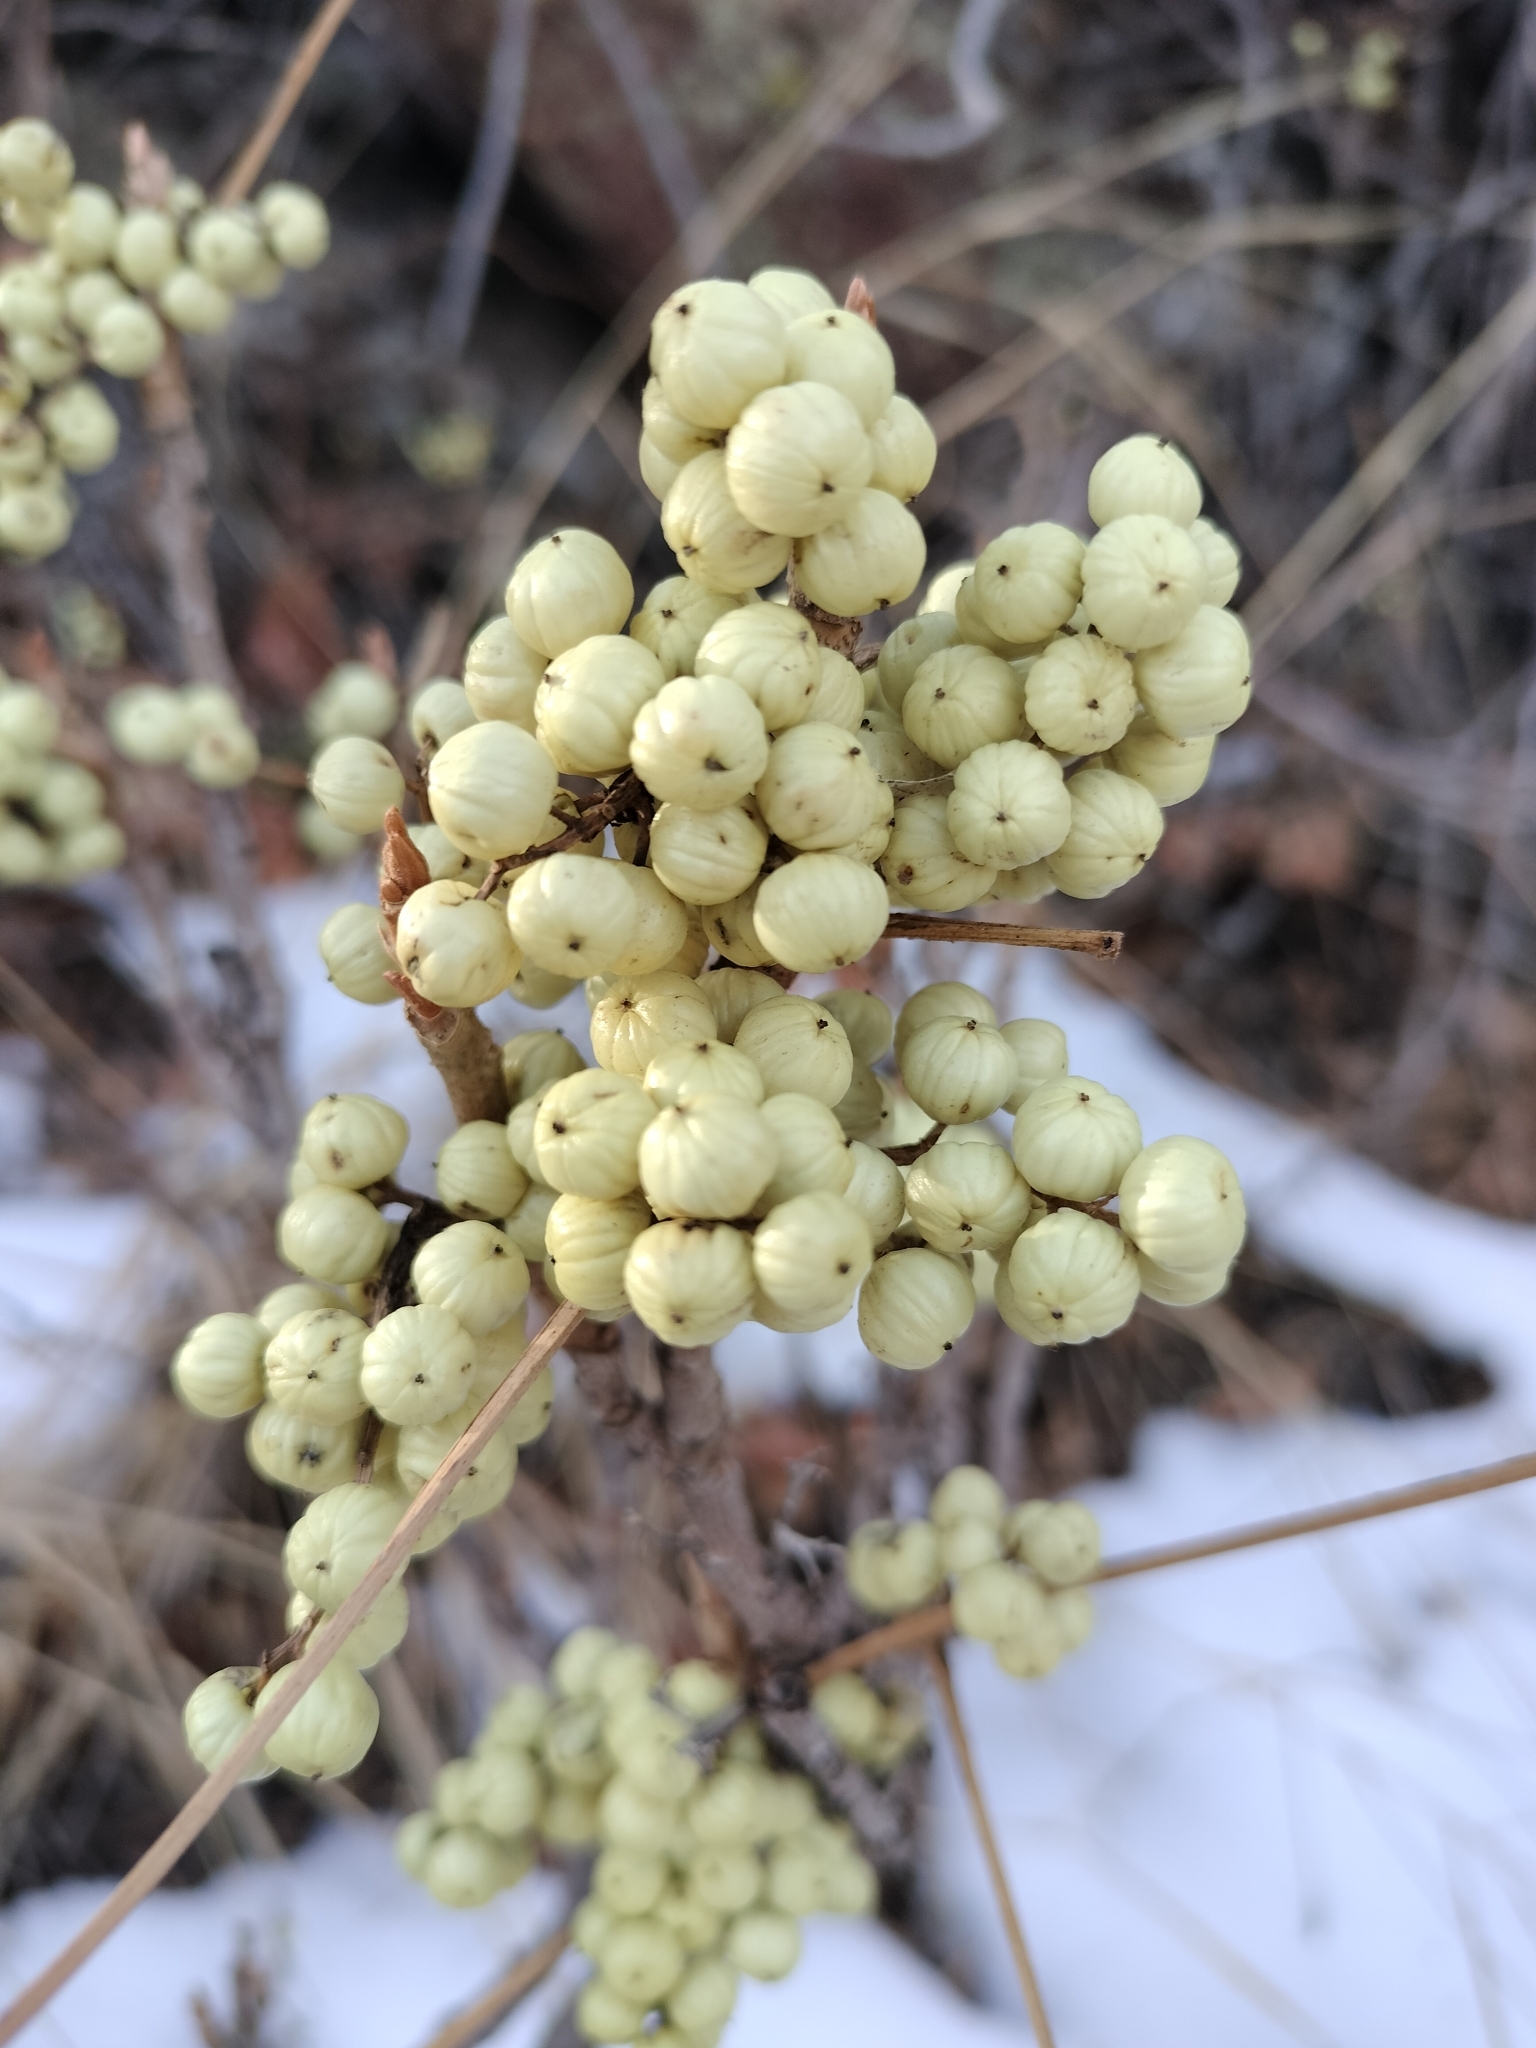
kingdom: Plantae
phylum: Tracheophyta
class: Magnoliopsida
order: Sapindales
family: Anacardiaceae
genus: Toxicodendron
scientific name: Toxicodendron rydbergii
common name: Rydberg's poison-ivy
